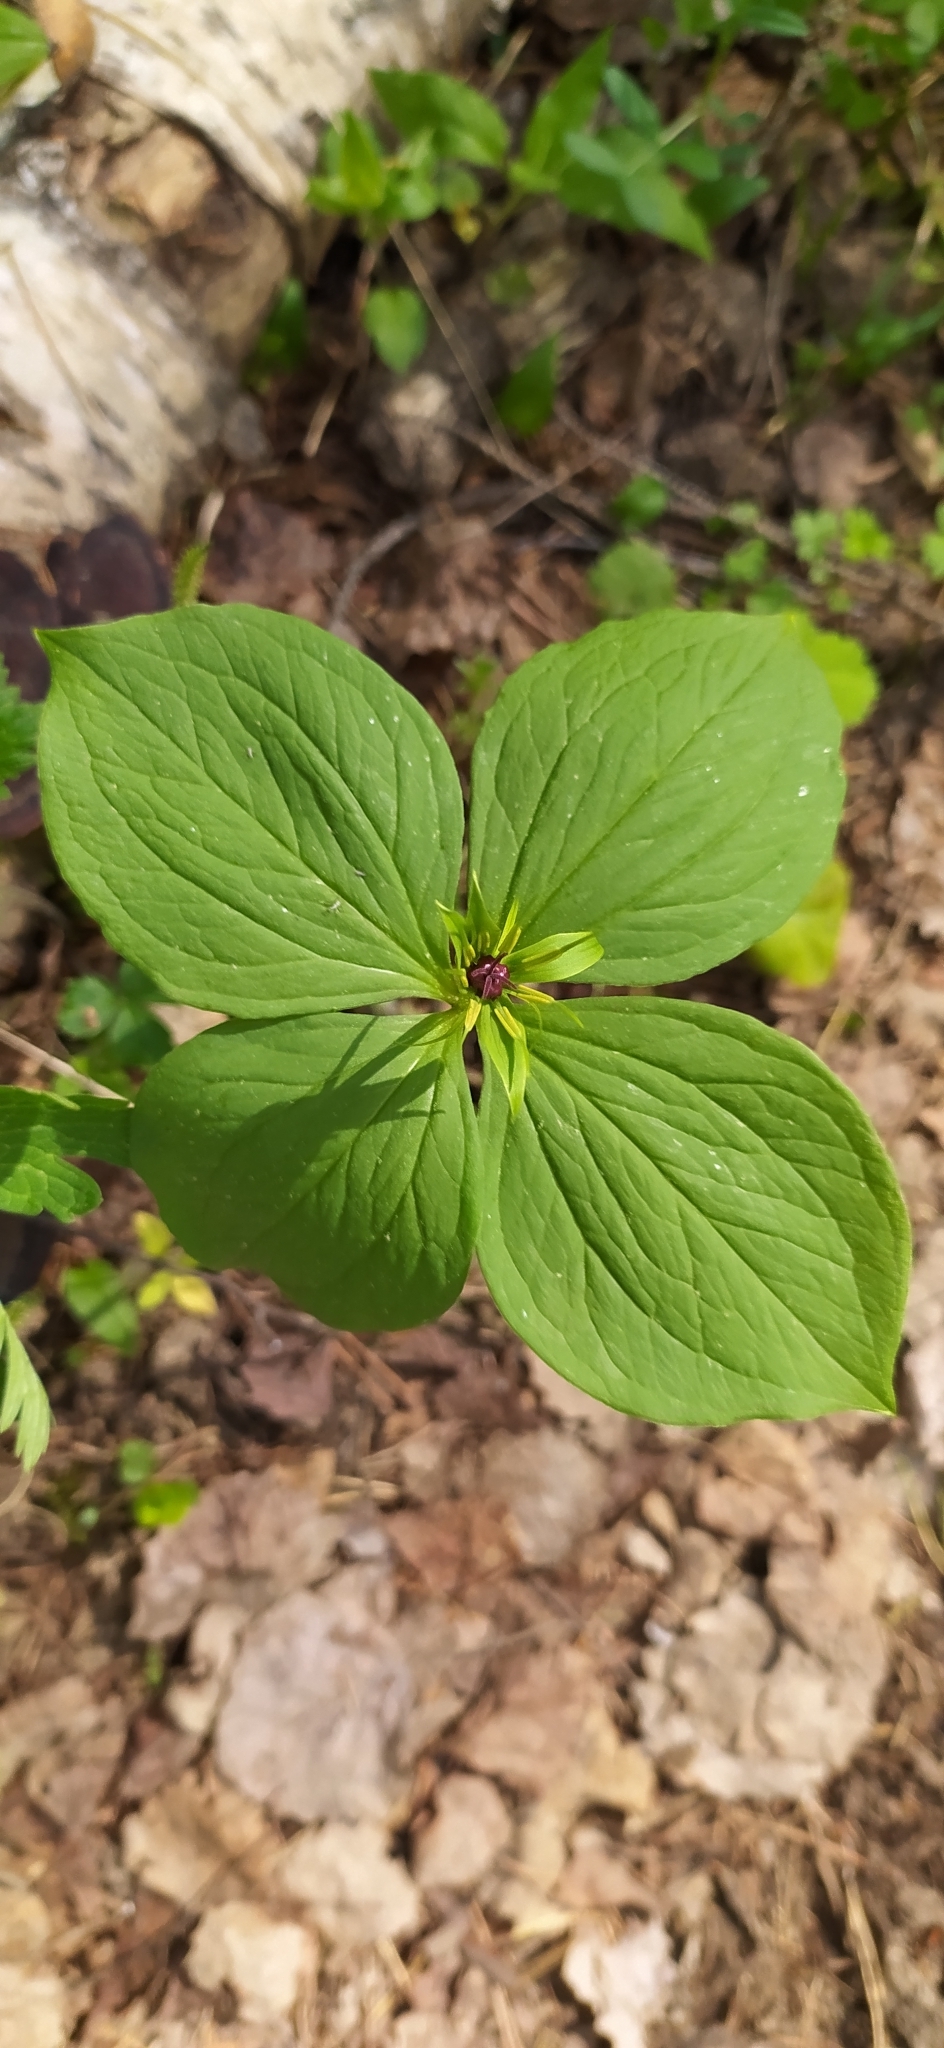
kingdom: Plantae
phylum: Tracheophyta
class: Liliopsida
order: Liliales
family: Melanthiaceae
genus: Paris
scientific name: Paris quadrifolia
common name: Herb-paris
